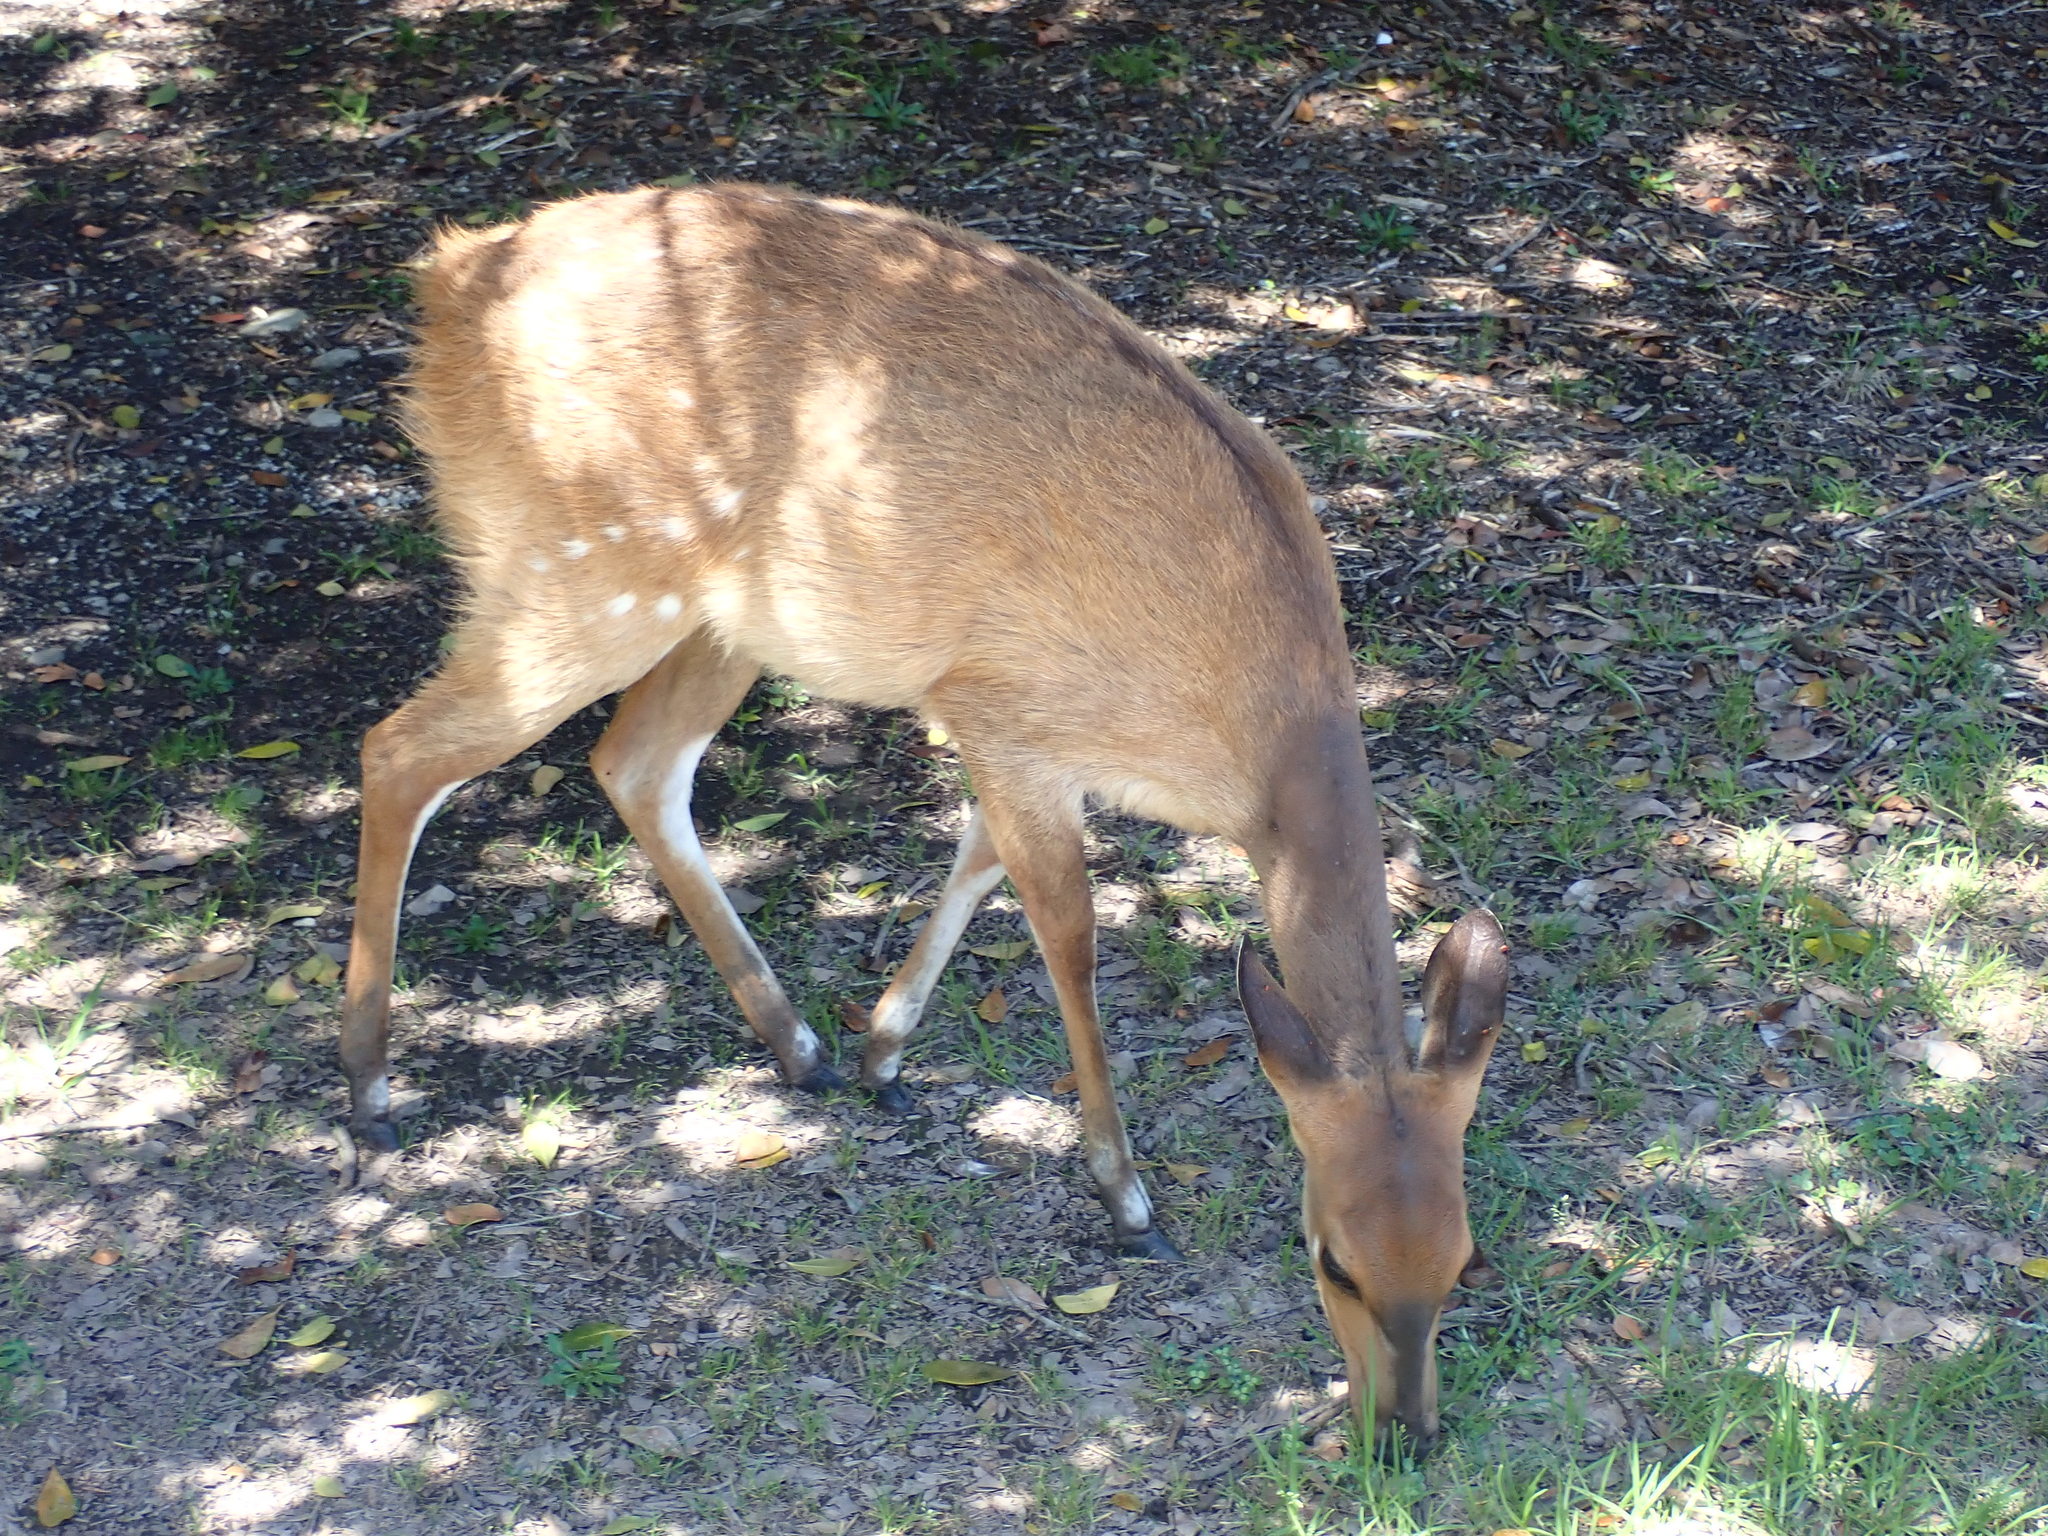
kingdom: Animalia
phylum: Chordata
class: Mammalia
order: Artiodactyla
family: Bovidae
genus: Tragelaphus
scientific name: Tragelaphus scriptus
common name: Bushbuck
